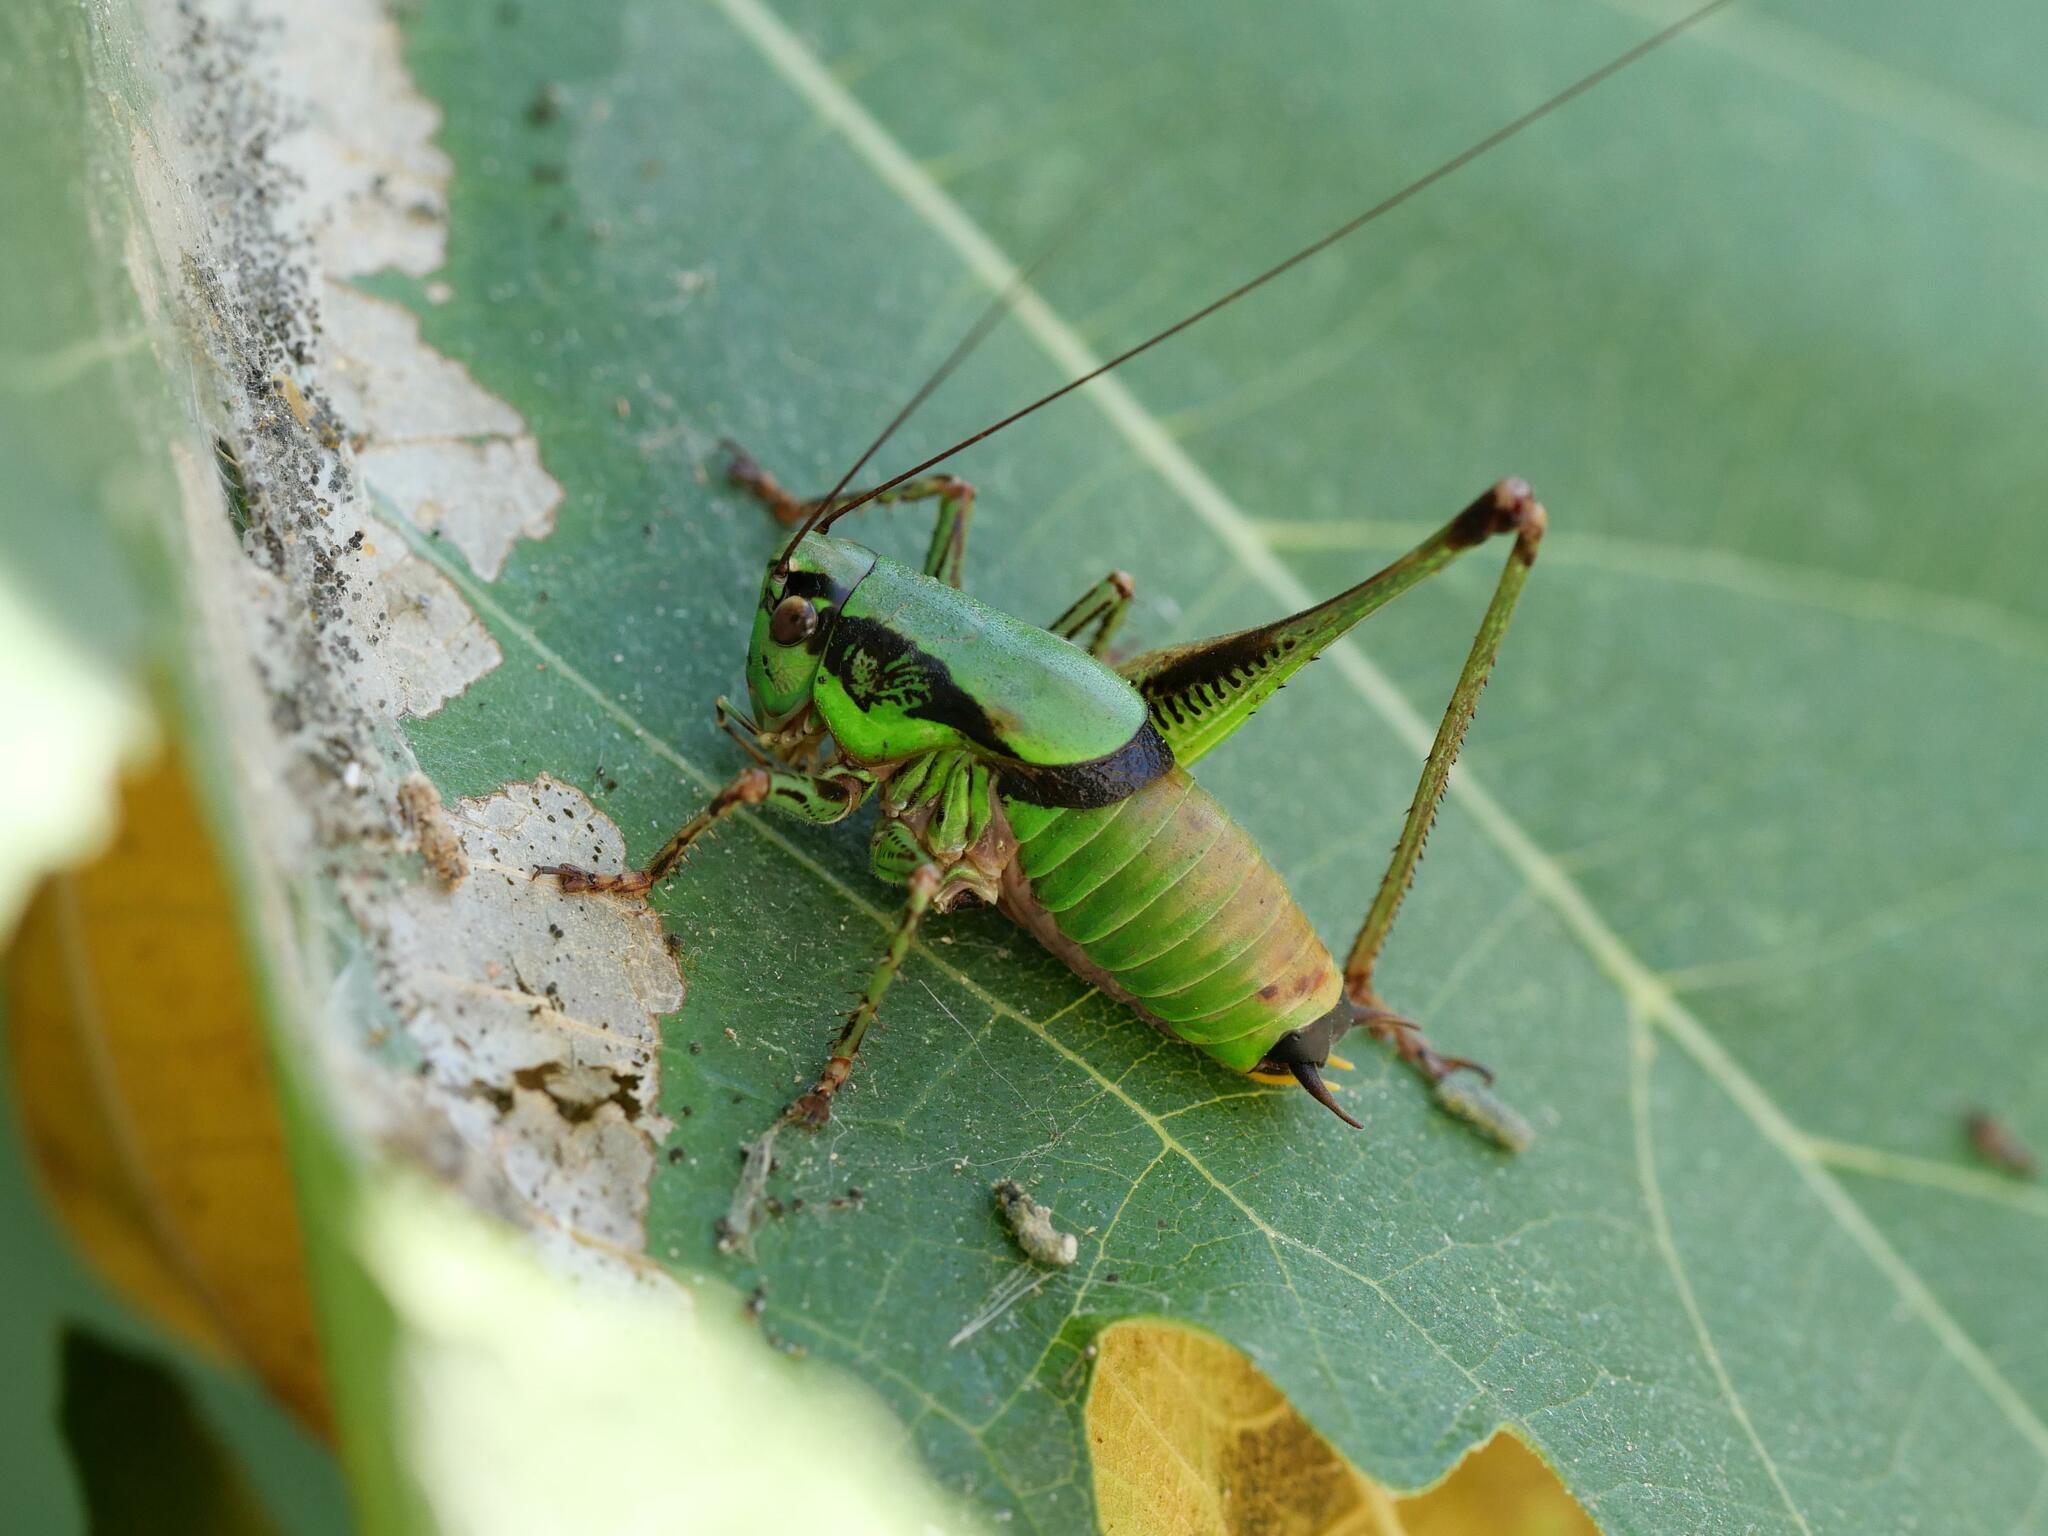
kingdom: Animalia
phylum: Arthropoda
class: Insecta
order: Orthoptera
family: Tettigoniidae
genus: Eupholidoptera
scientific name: Eupholidoptera garganica
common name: Gargano marbled bush-cricket
